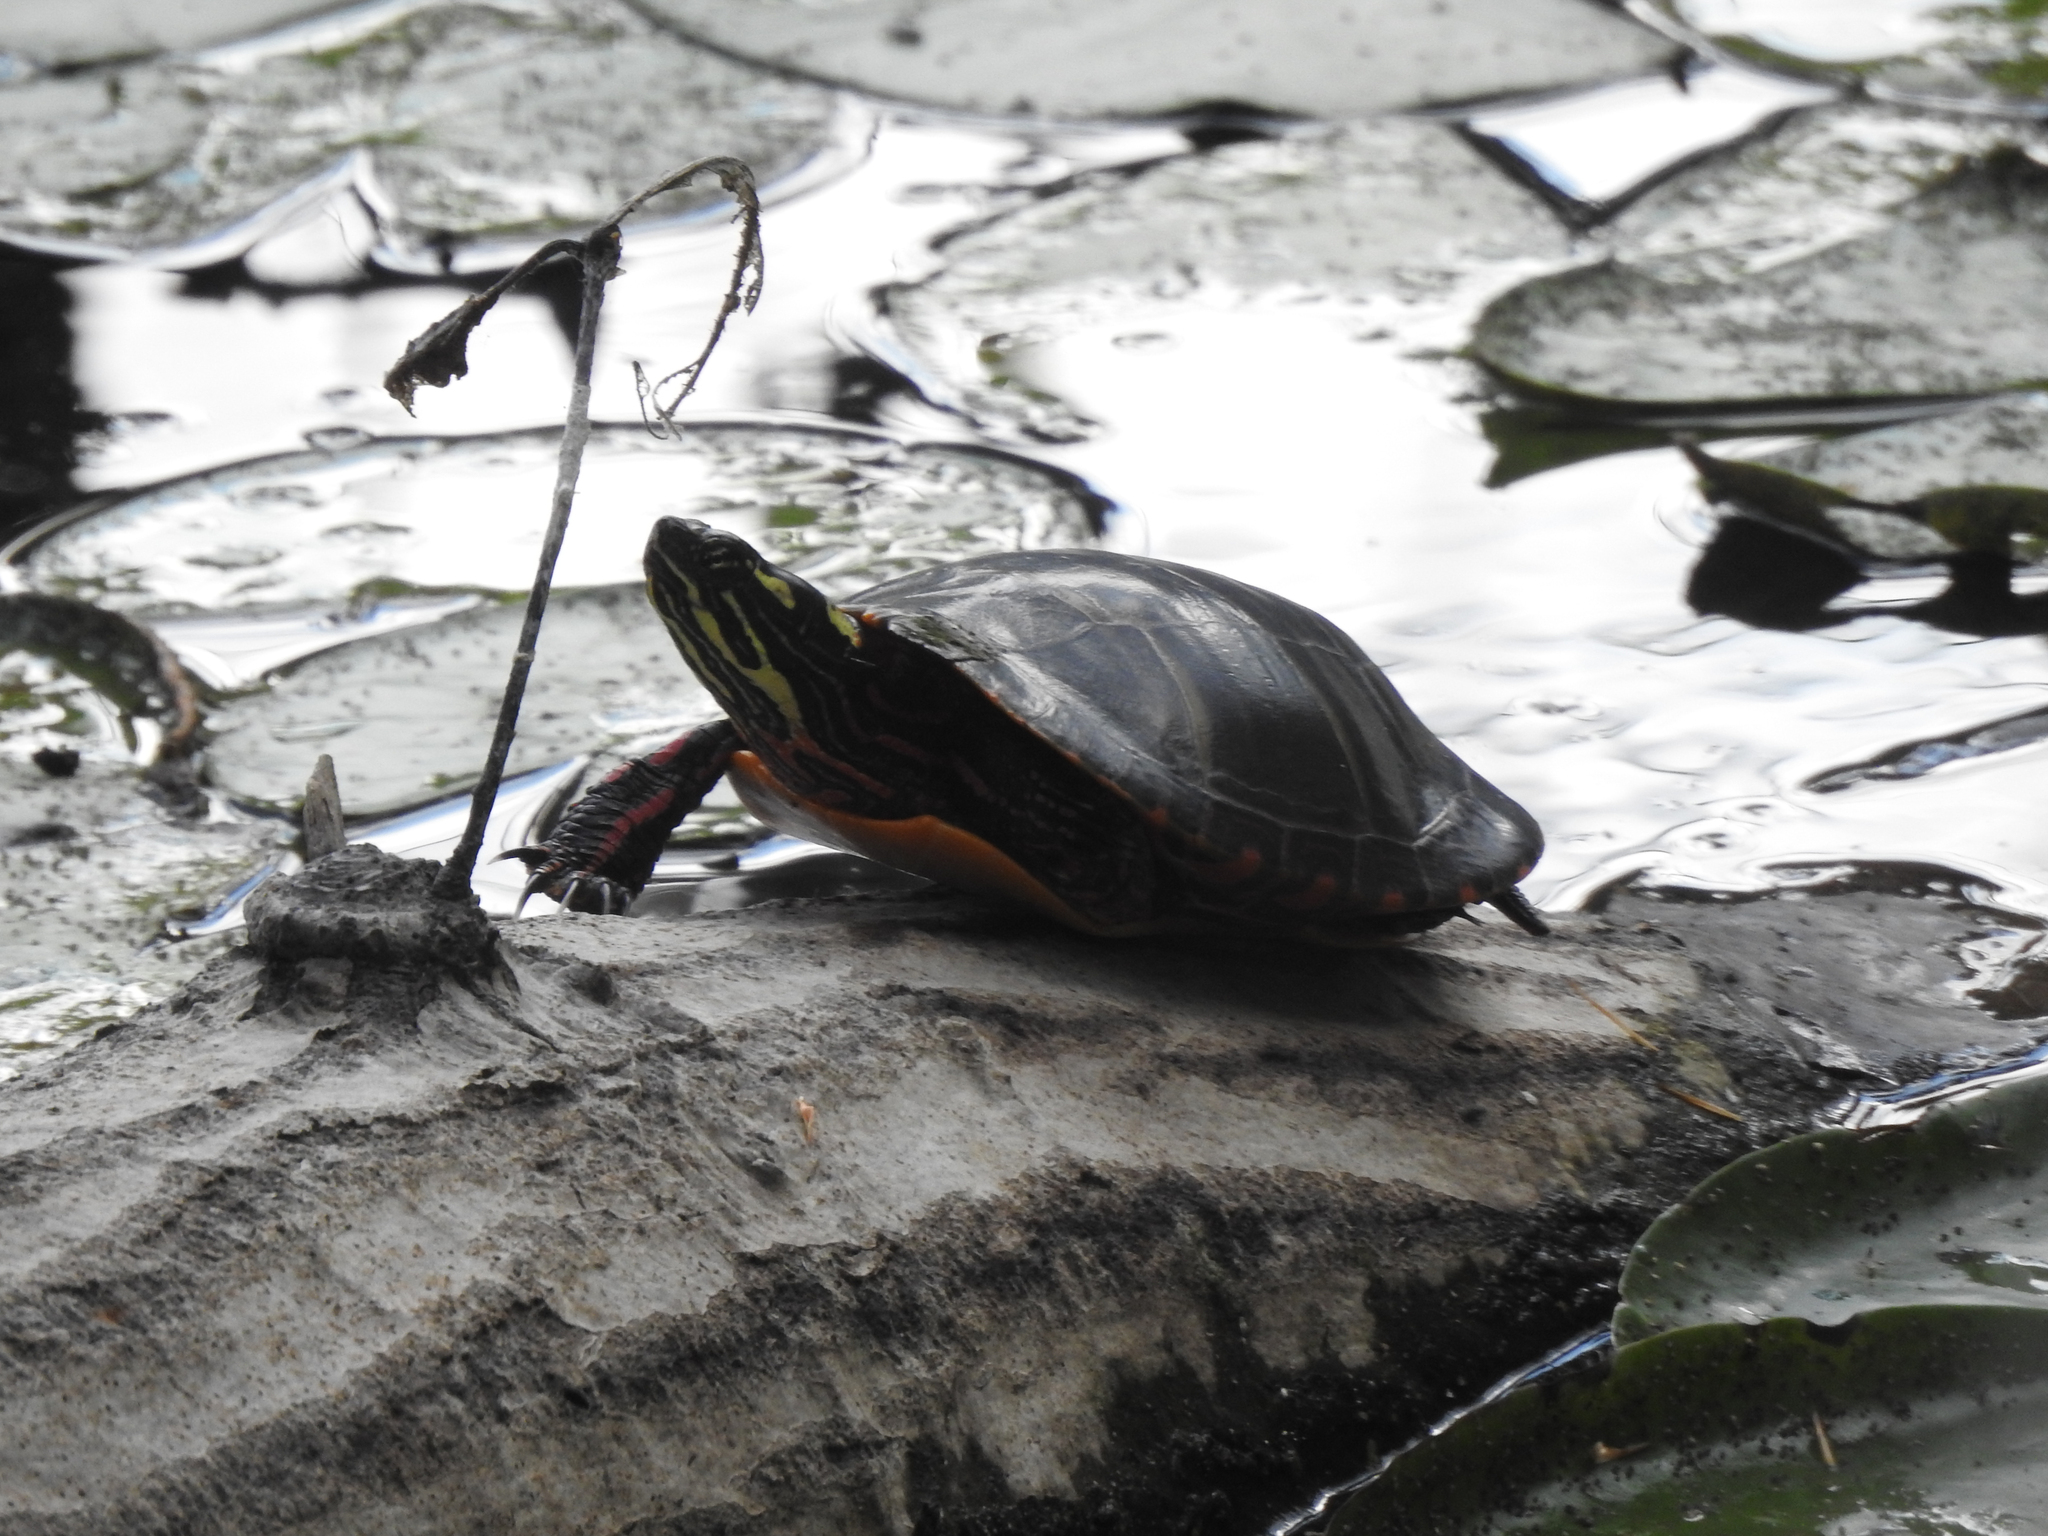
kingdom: Animalia
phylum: Chordata
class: Testudines
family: Emydidae
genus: Chrysemys
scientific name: Chrysemys picta
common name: Painted turtle
